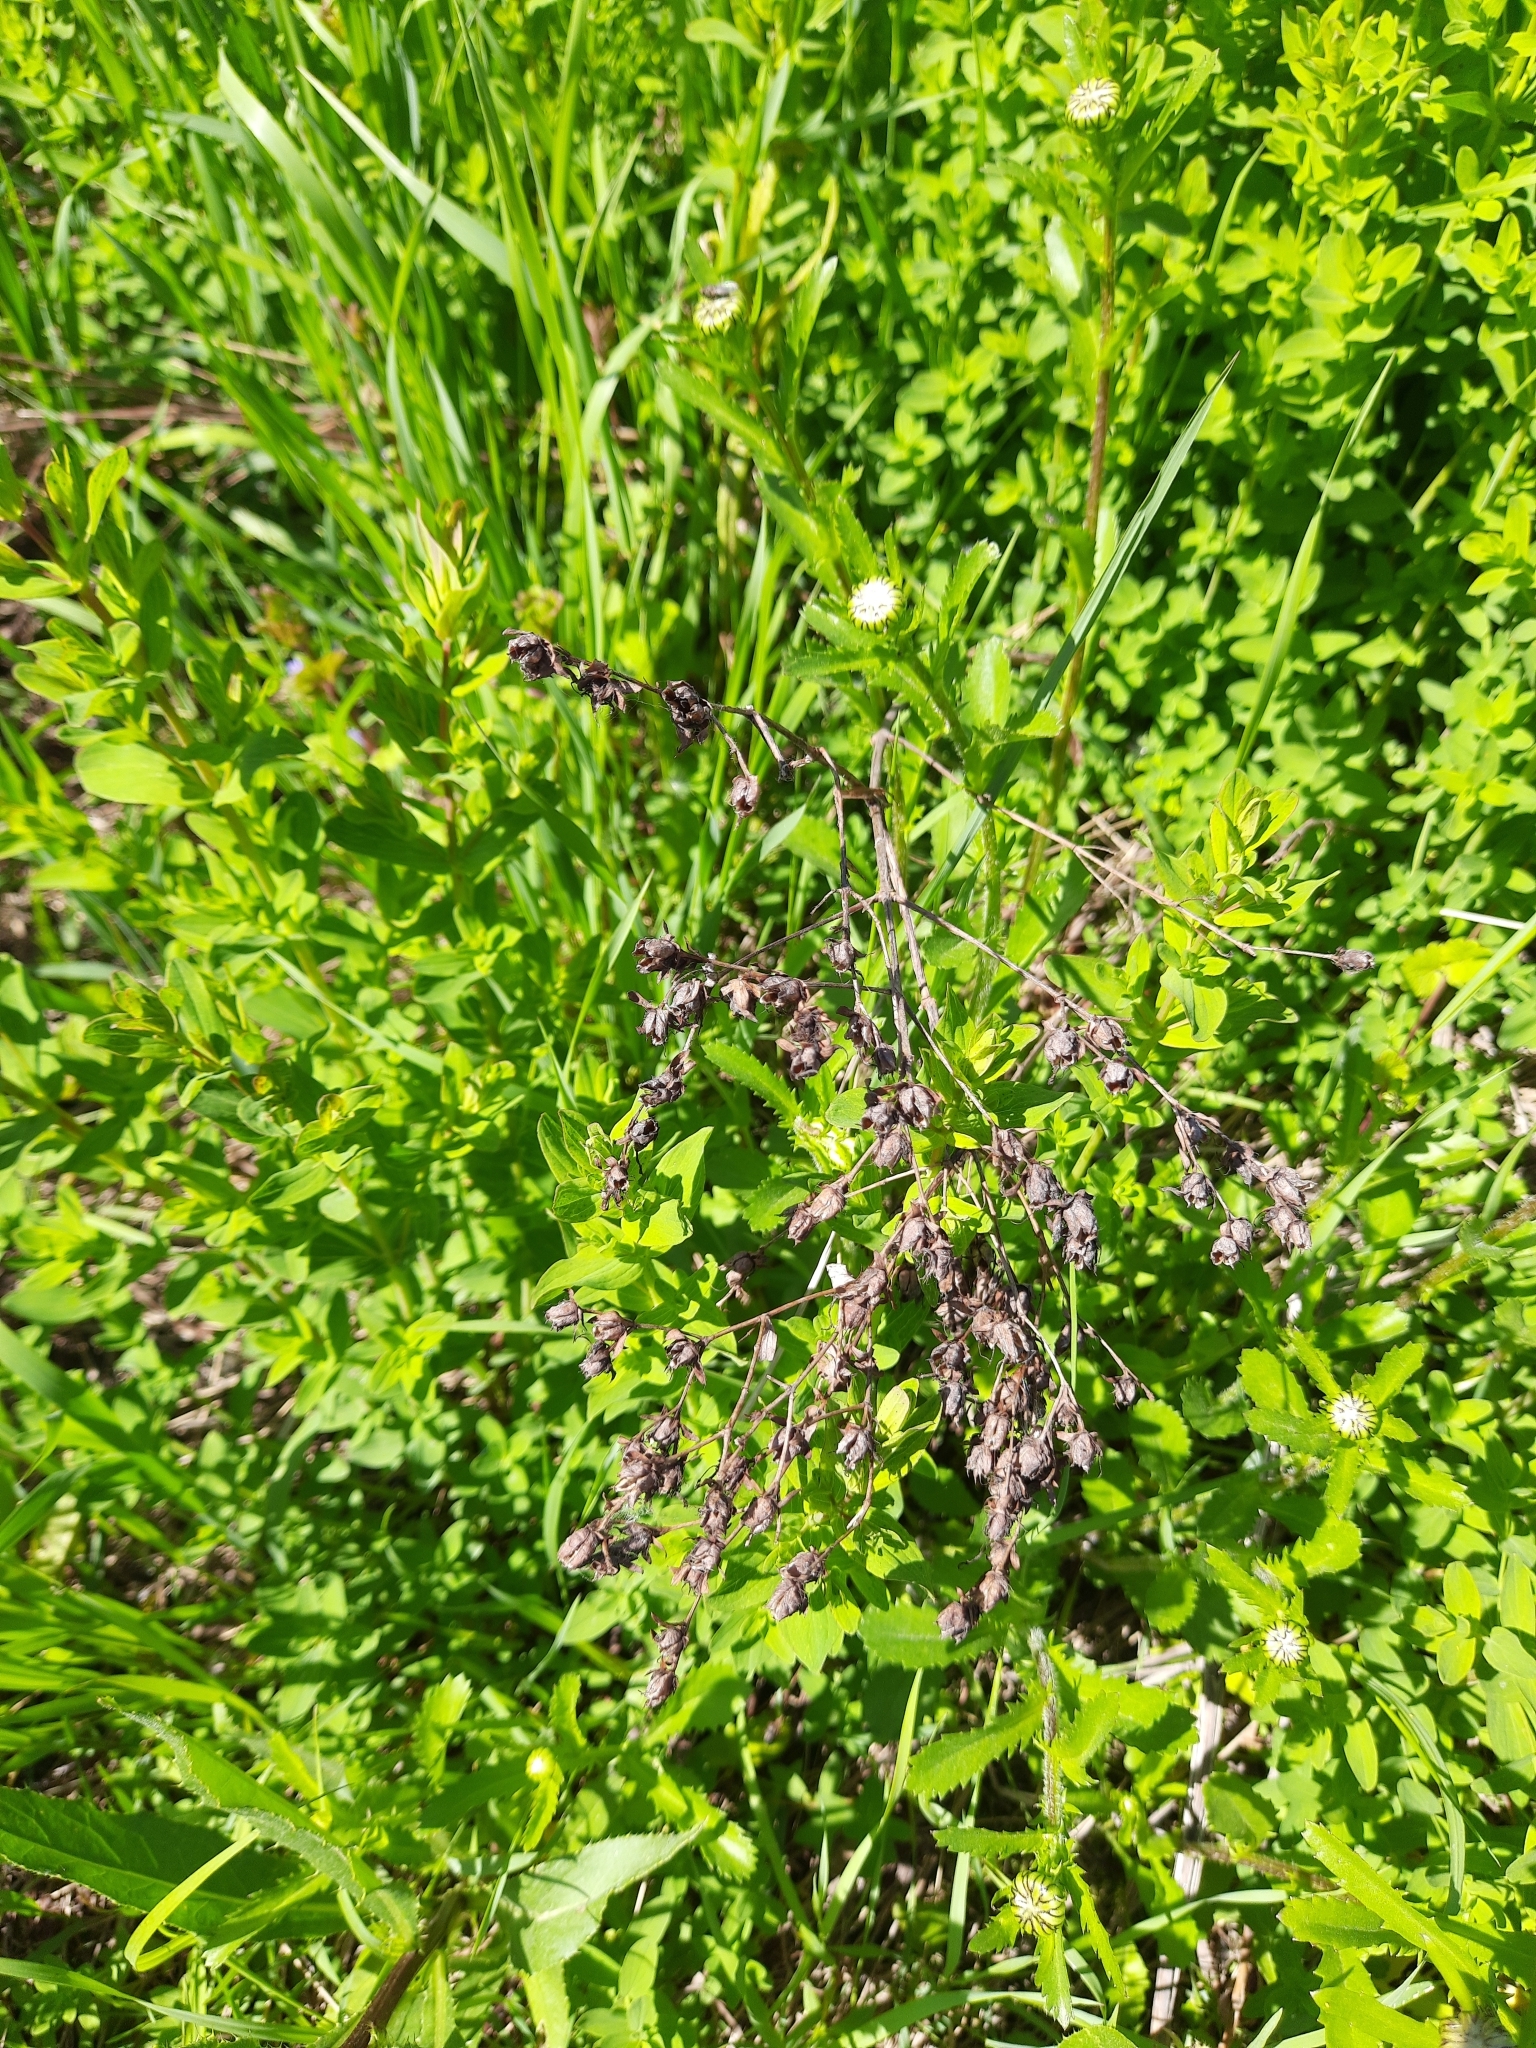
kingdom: Plantae
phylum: Tracheophyta
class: Magnoliopsida
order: Malpighiales
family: Hypericaceae
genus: Hypericum
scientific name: Hypericum perforatum
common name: Common st. johnswort
